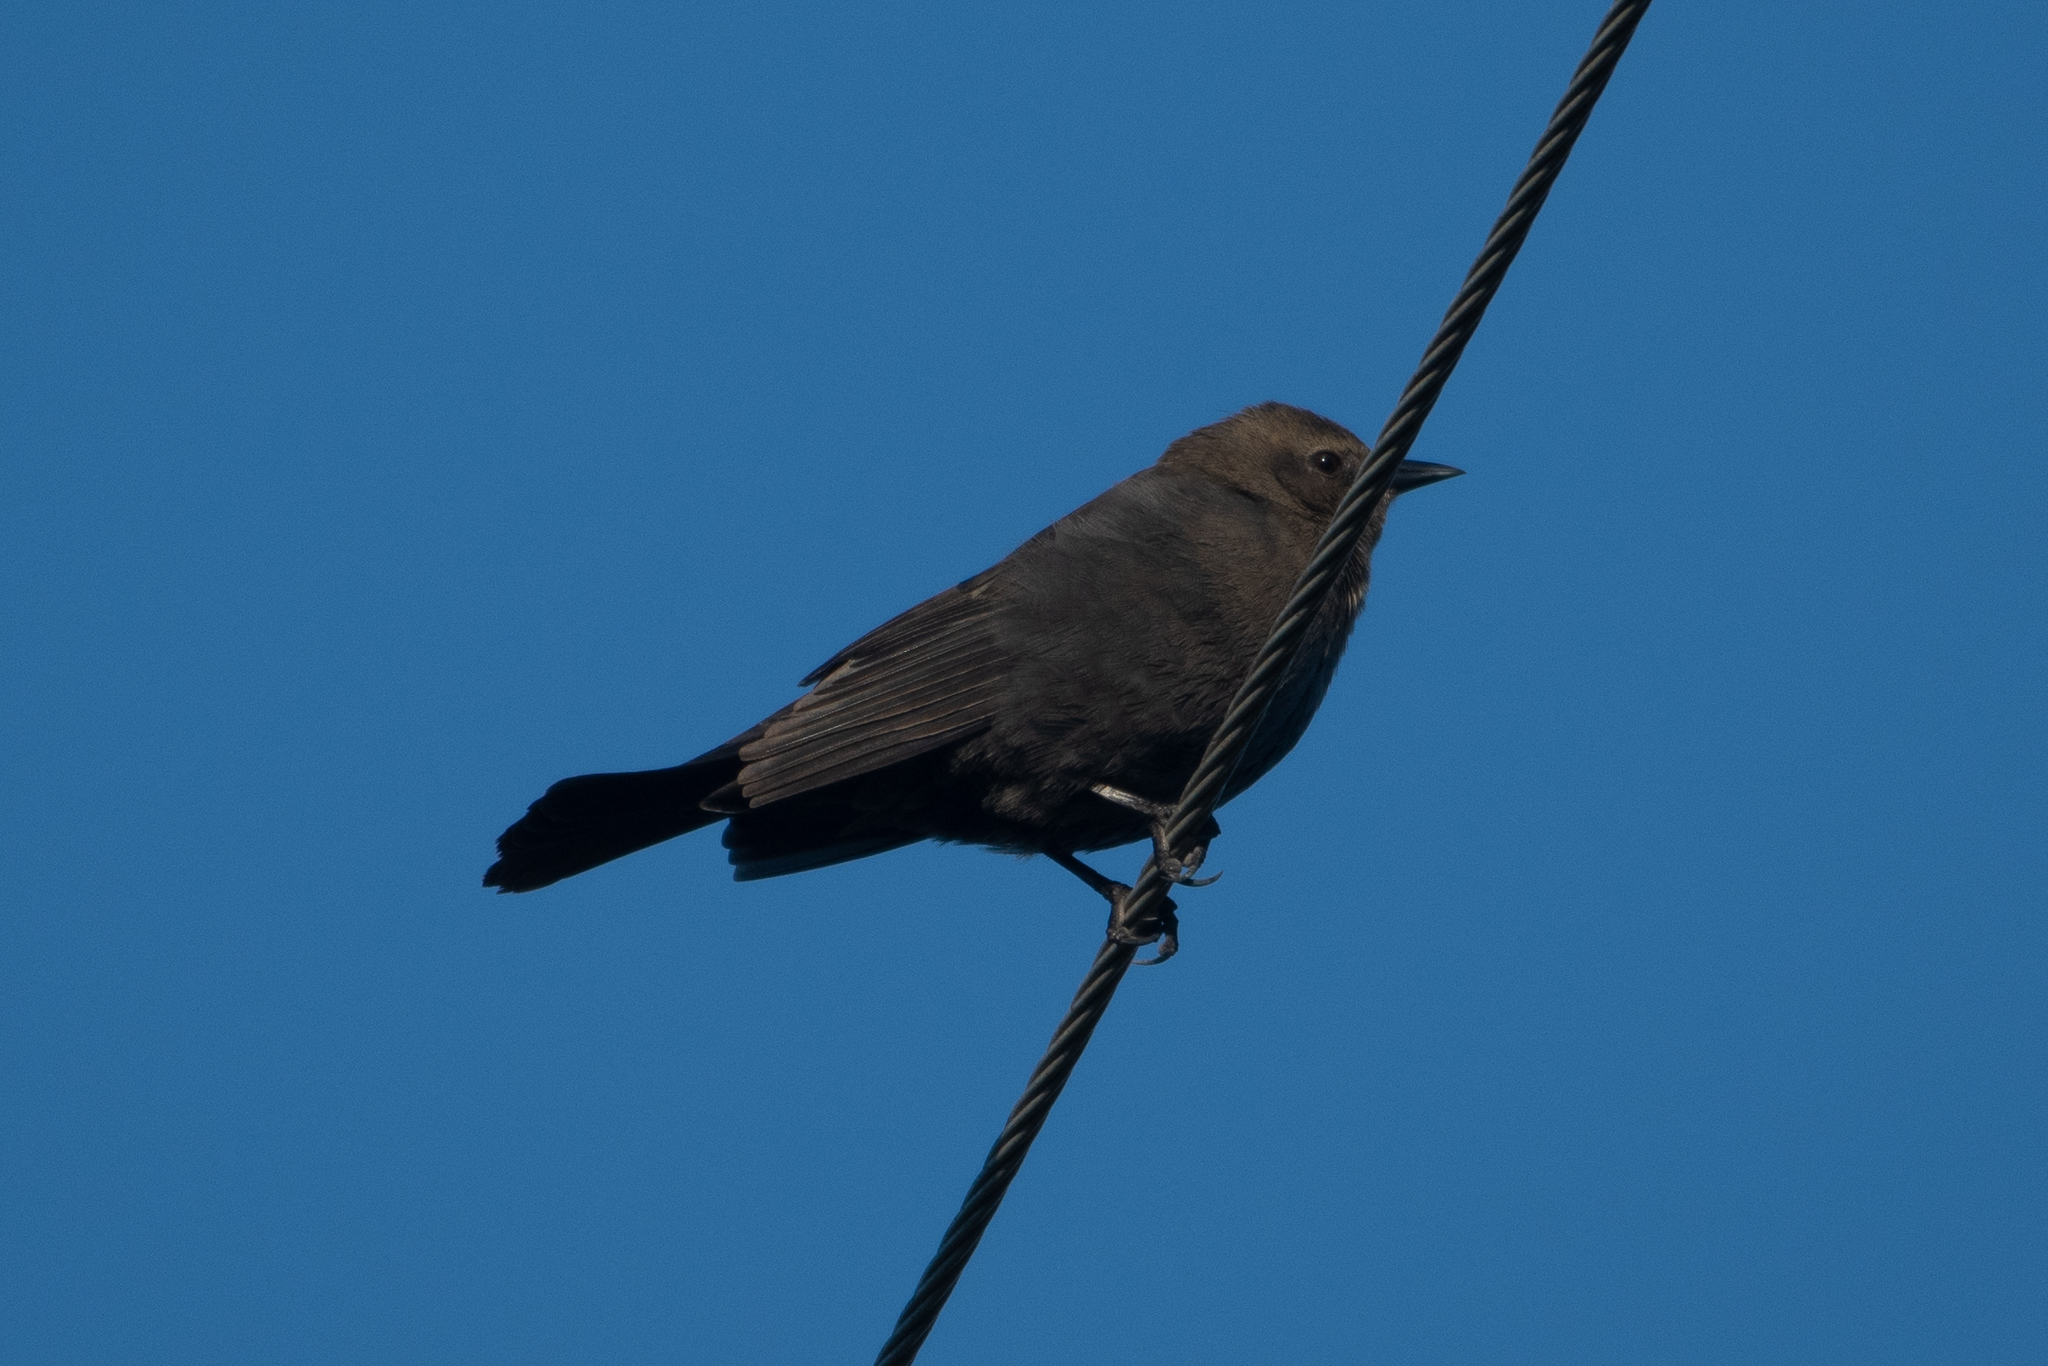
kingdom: Animalia
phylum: Chordata
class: Aves
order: Passeriformes
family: Icteridae
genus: Euphagus
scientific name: Euphagus cyanocephalus
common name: Brewer's blackbird
